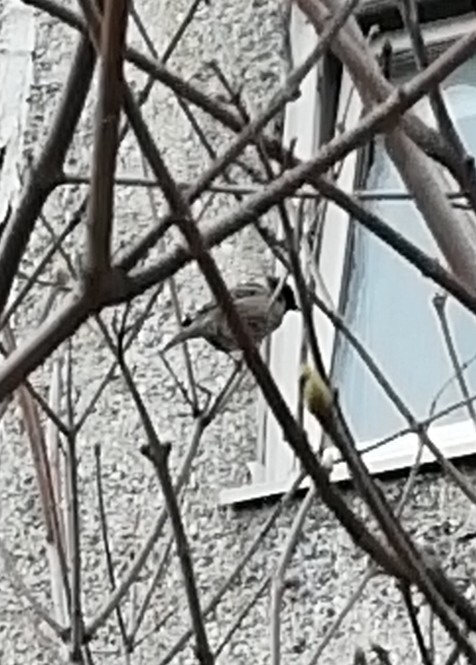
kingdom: Animalia
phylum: Chordata
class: Aves
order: Passeriformes
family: Passeridae
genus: Passer
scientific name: Passer montanus
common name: Eurasian tree sparrow
